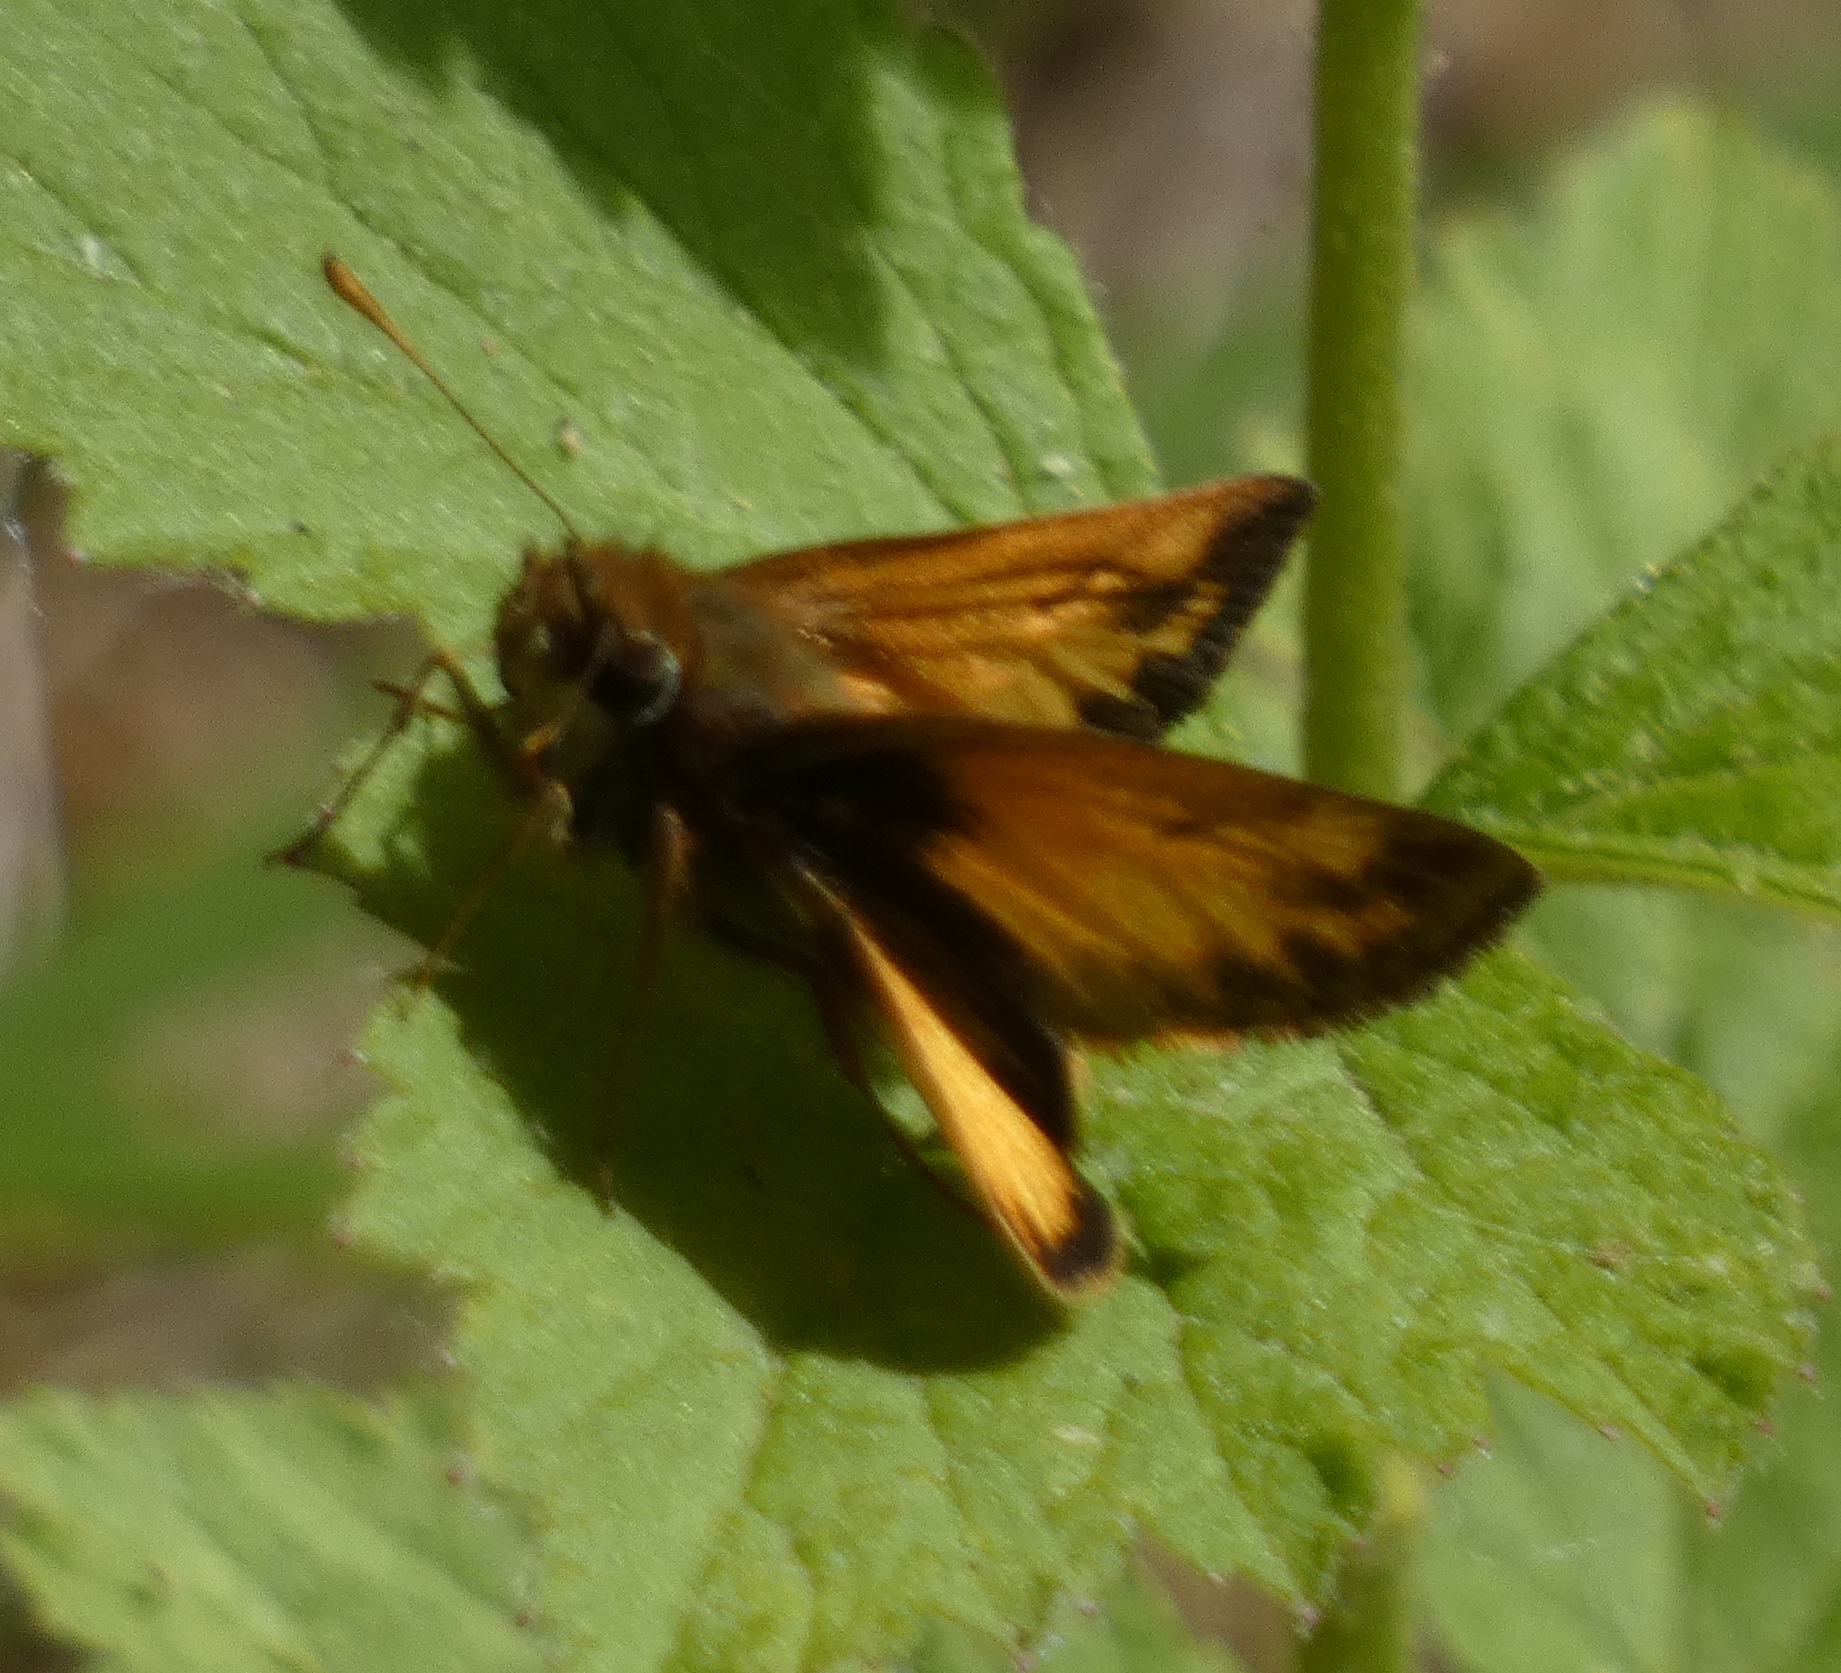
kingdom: Animalia
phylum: Arthropoda
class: Insecta
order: Lepidoptera
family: Hesperiidae
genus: Lon
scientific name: Lon zabulon
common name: Zabulon skipper
